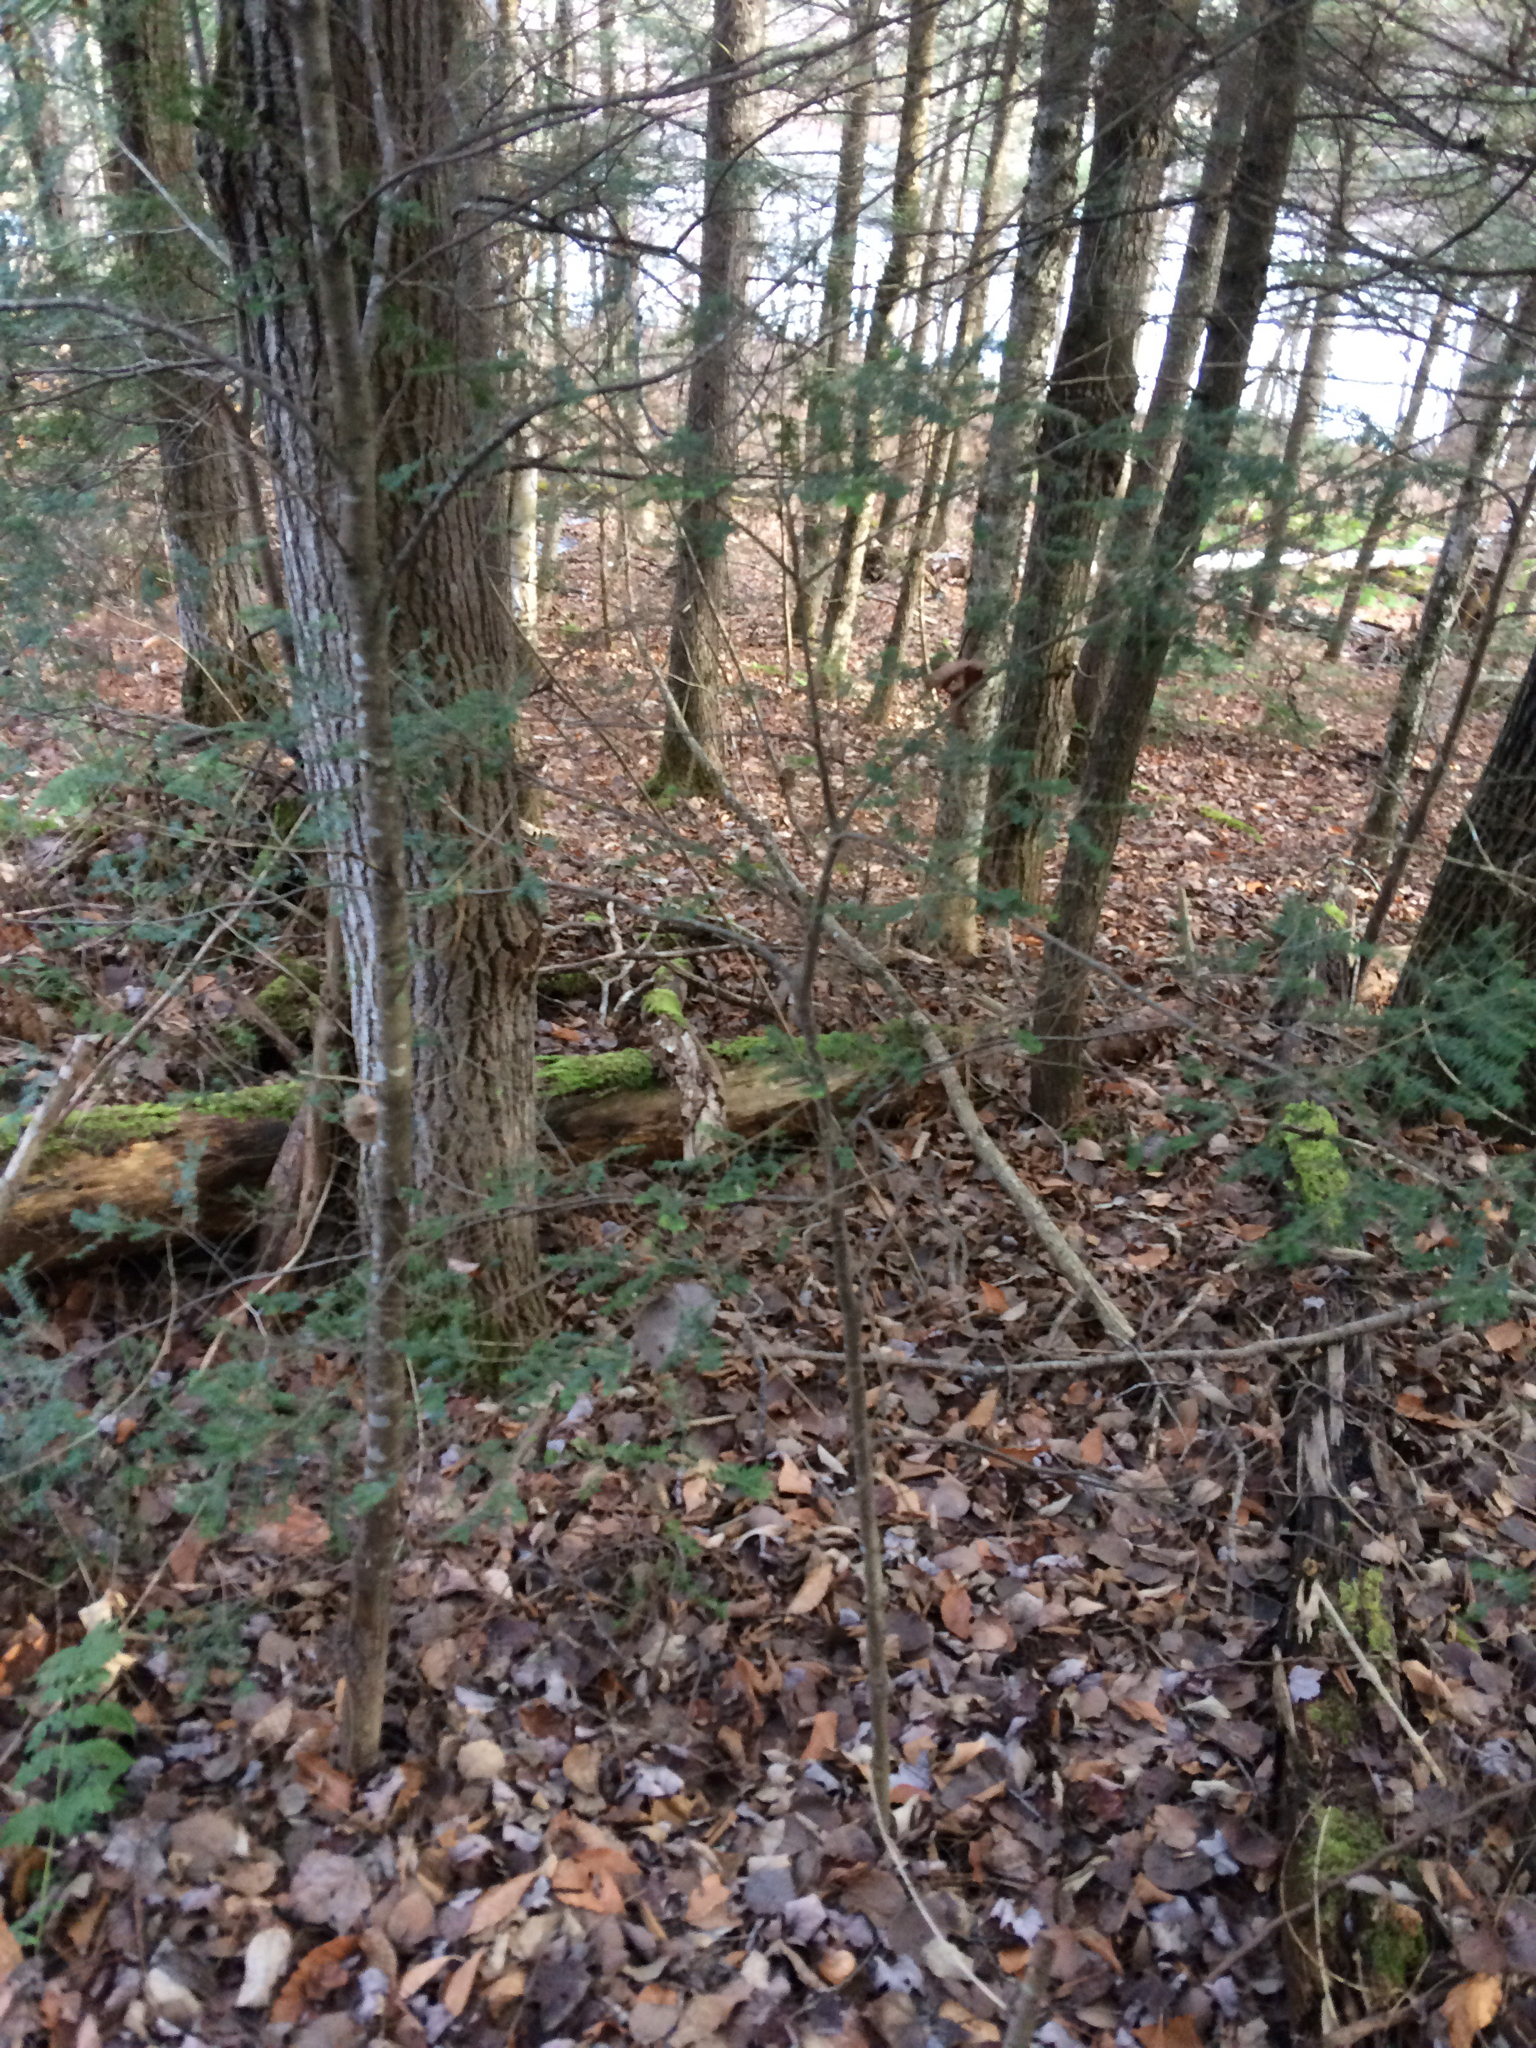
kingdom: Plantae
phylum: Tracheophyta
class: Pinopsida
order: Pinales
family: Pinaceae
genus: Tsuga
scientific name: Tsuga canadensis
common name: Eastern hemlock
